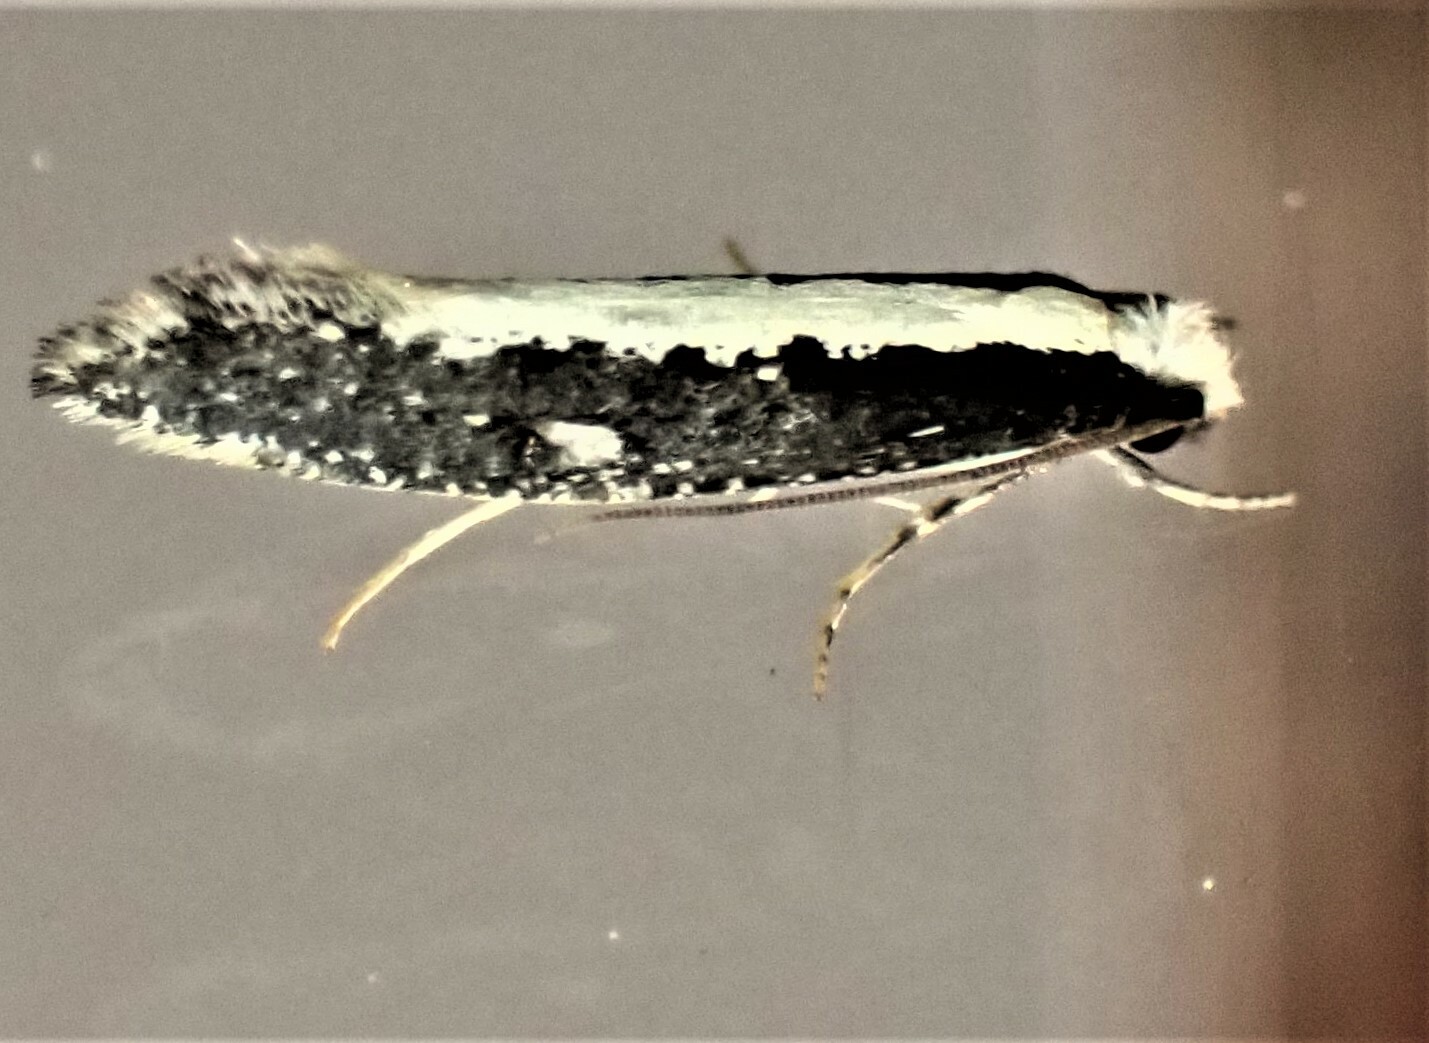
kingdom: Animalia
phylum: Arthropoda
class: Insecta
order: Lepidoptera
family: Tineidae
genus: Monopis
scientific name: Monopis ethelella
